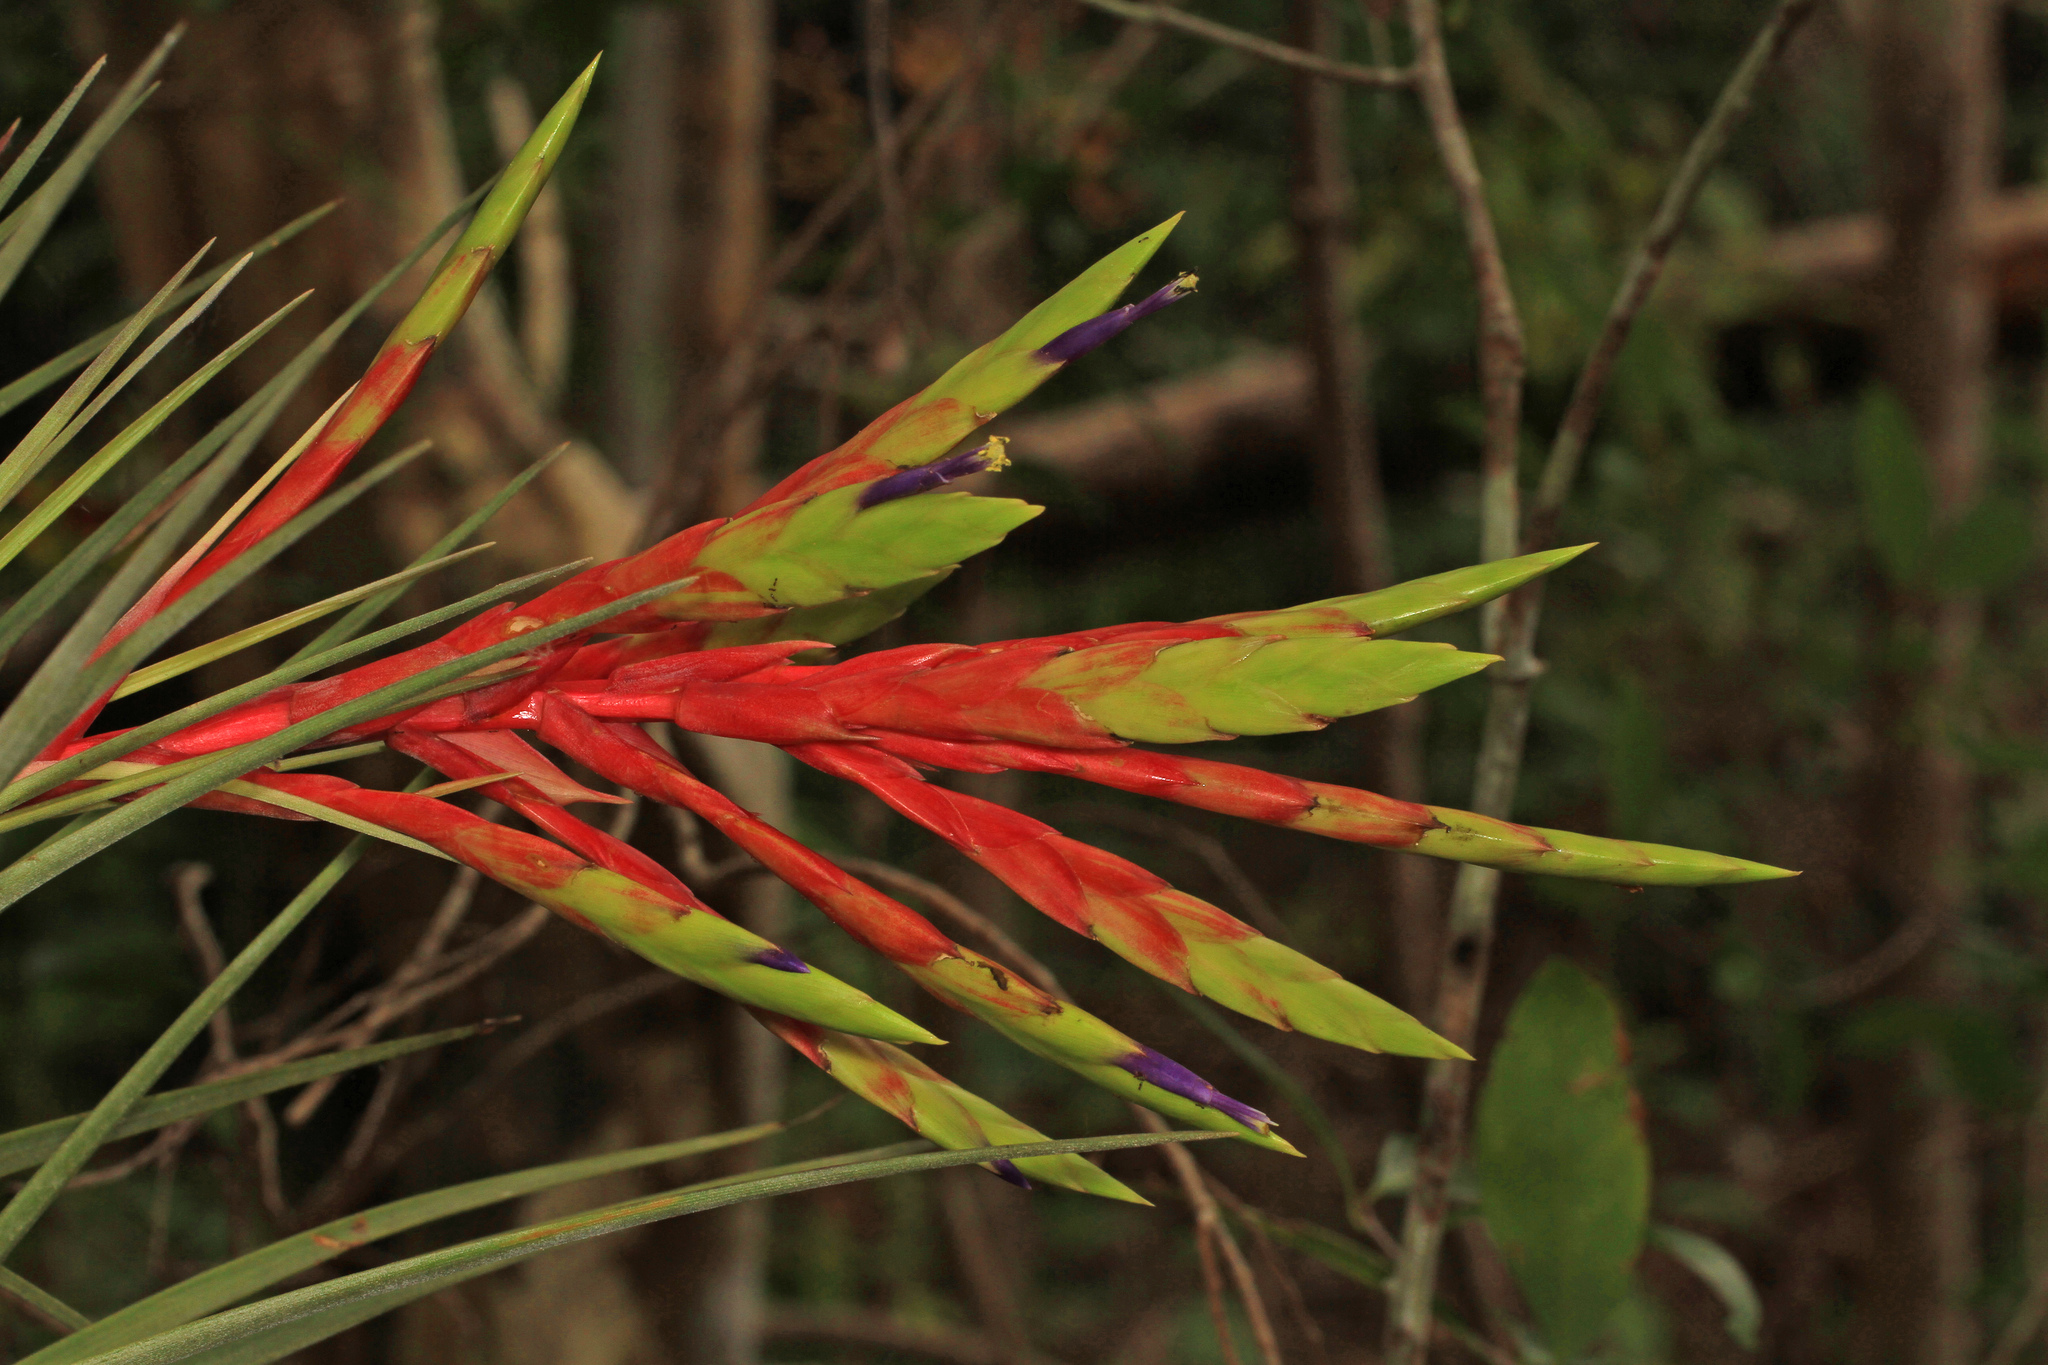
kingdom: Plantae
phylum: Tracheophyta
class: Liliopsida
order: Poales
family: Bromeliaceae
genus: Tillandsia
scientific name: Tillandsia fasciculata
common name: Giant airplant
